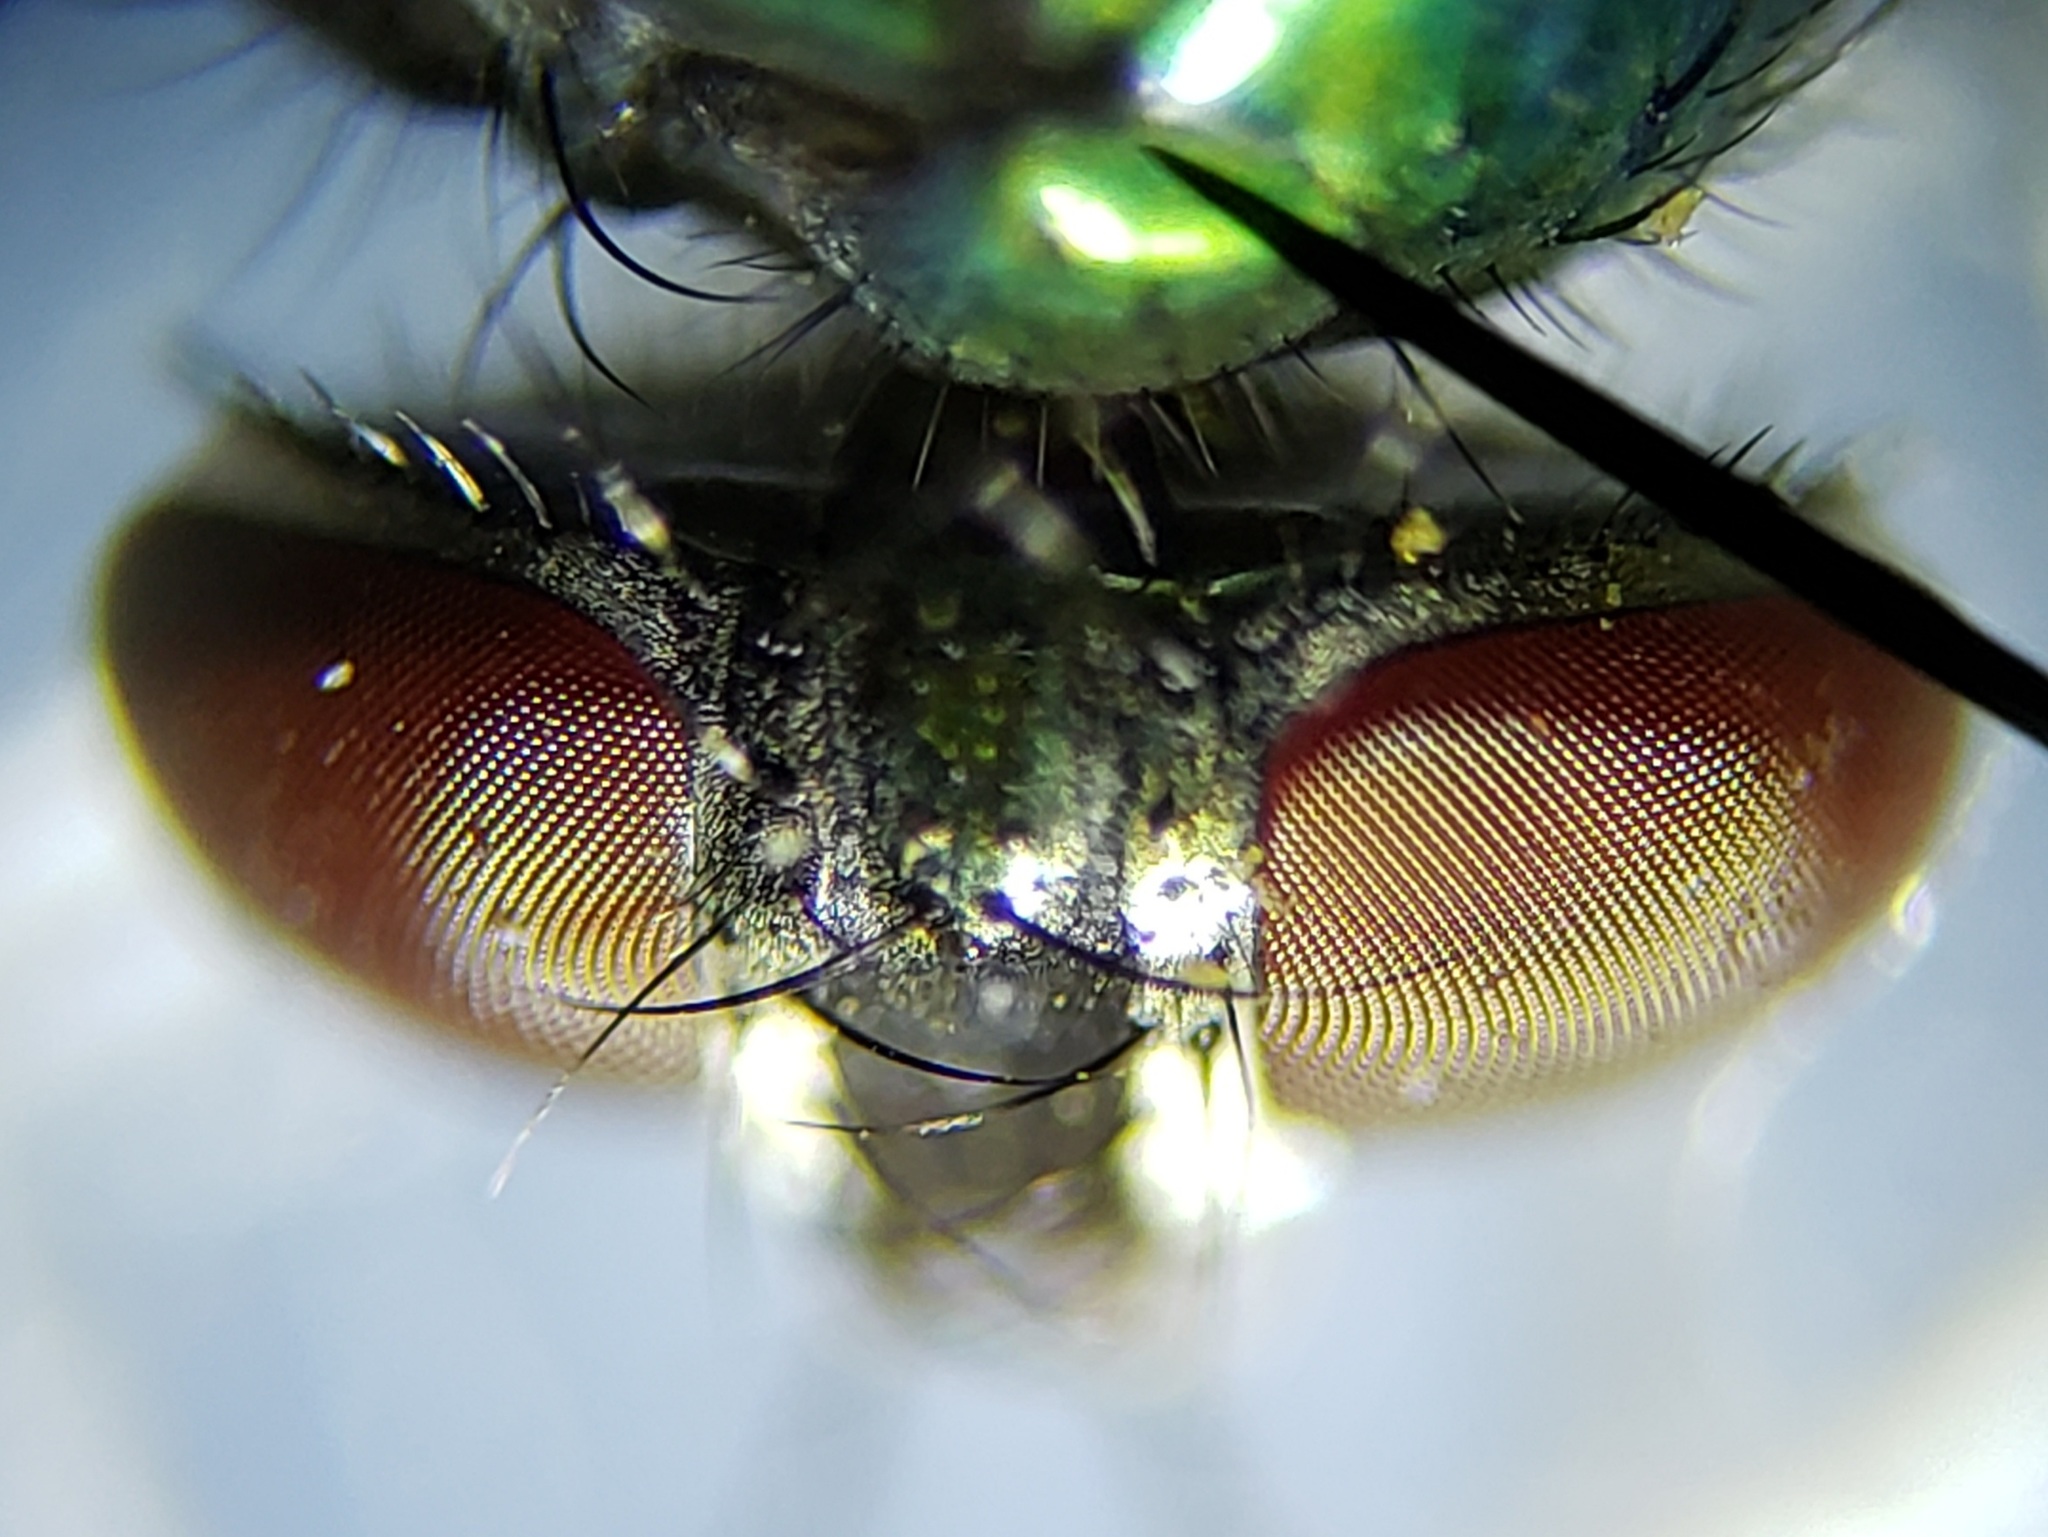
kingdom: Animalia
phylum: Arthropoda
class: Insecta
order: Diptera
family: Calliphoridae
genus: Lucilia
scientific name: Lucilia caeruleiviridis
